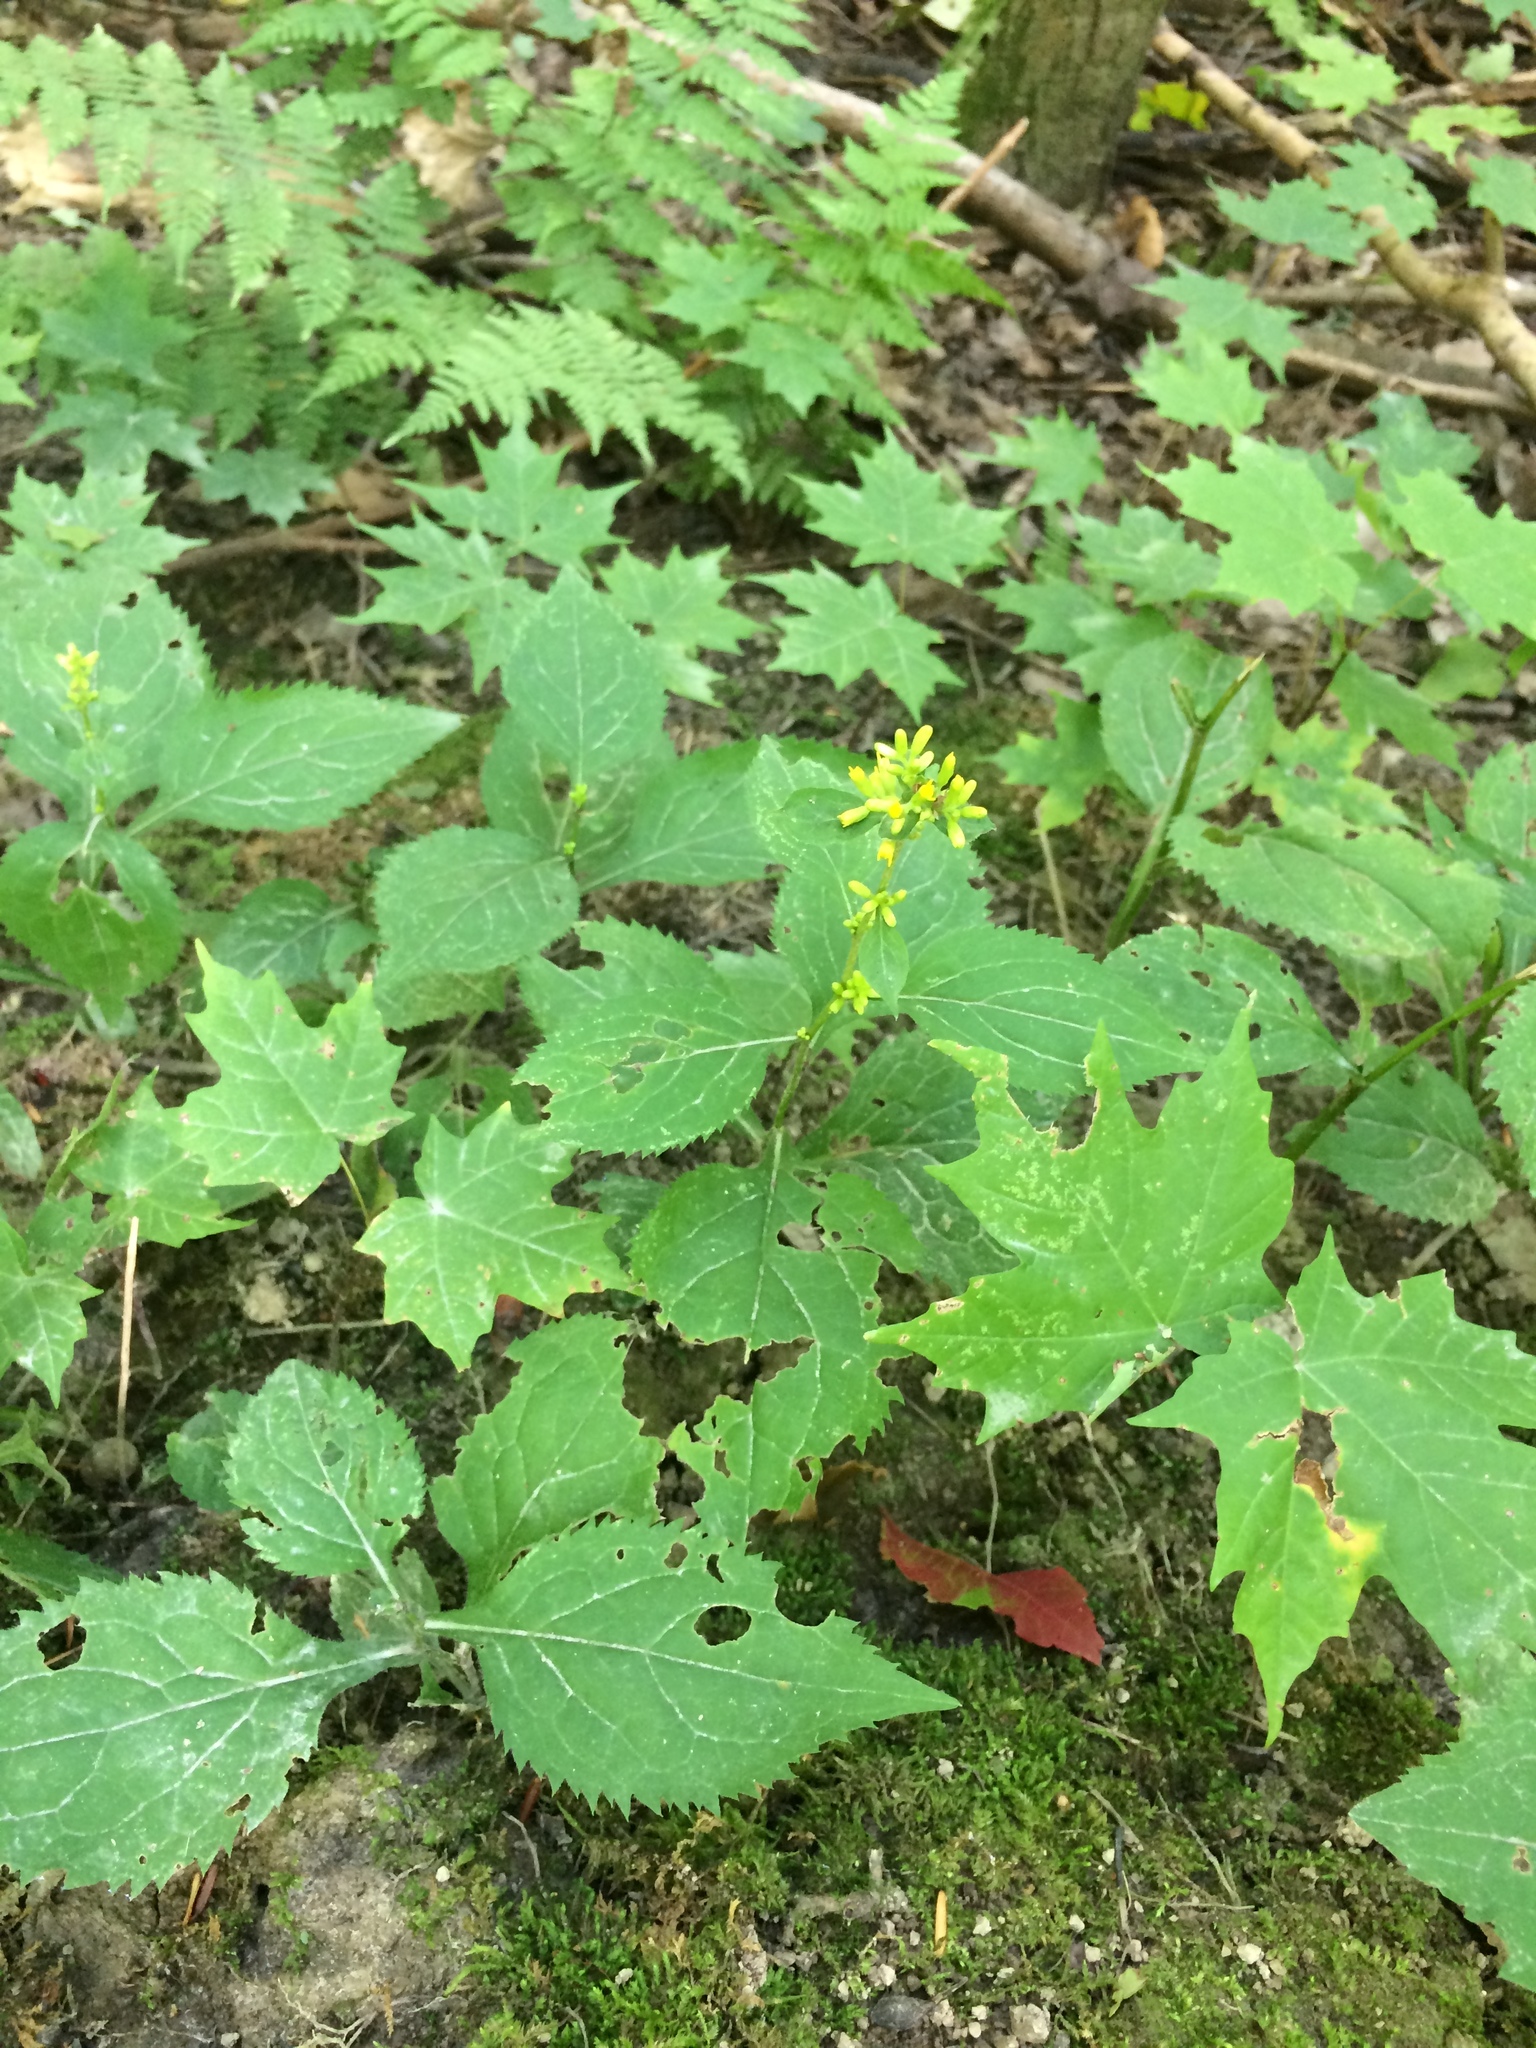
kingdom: Plantae
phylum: Tracheophyta
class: Magnoliopsida
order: Sapindales
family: Sapindaceae
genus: Acer
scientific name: Acer saccharum
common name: Sugar maple
